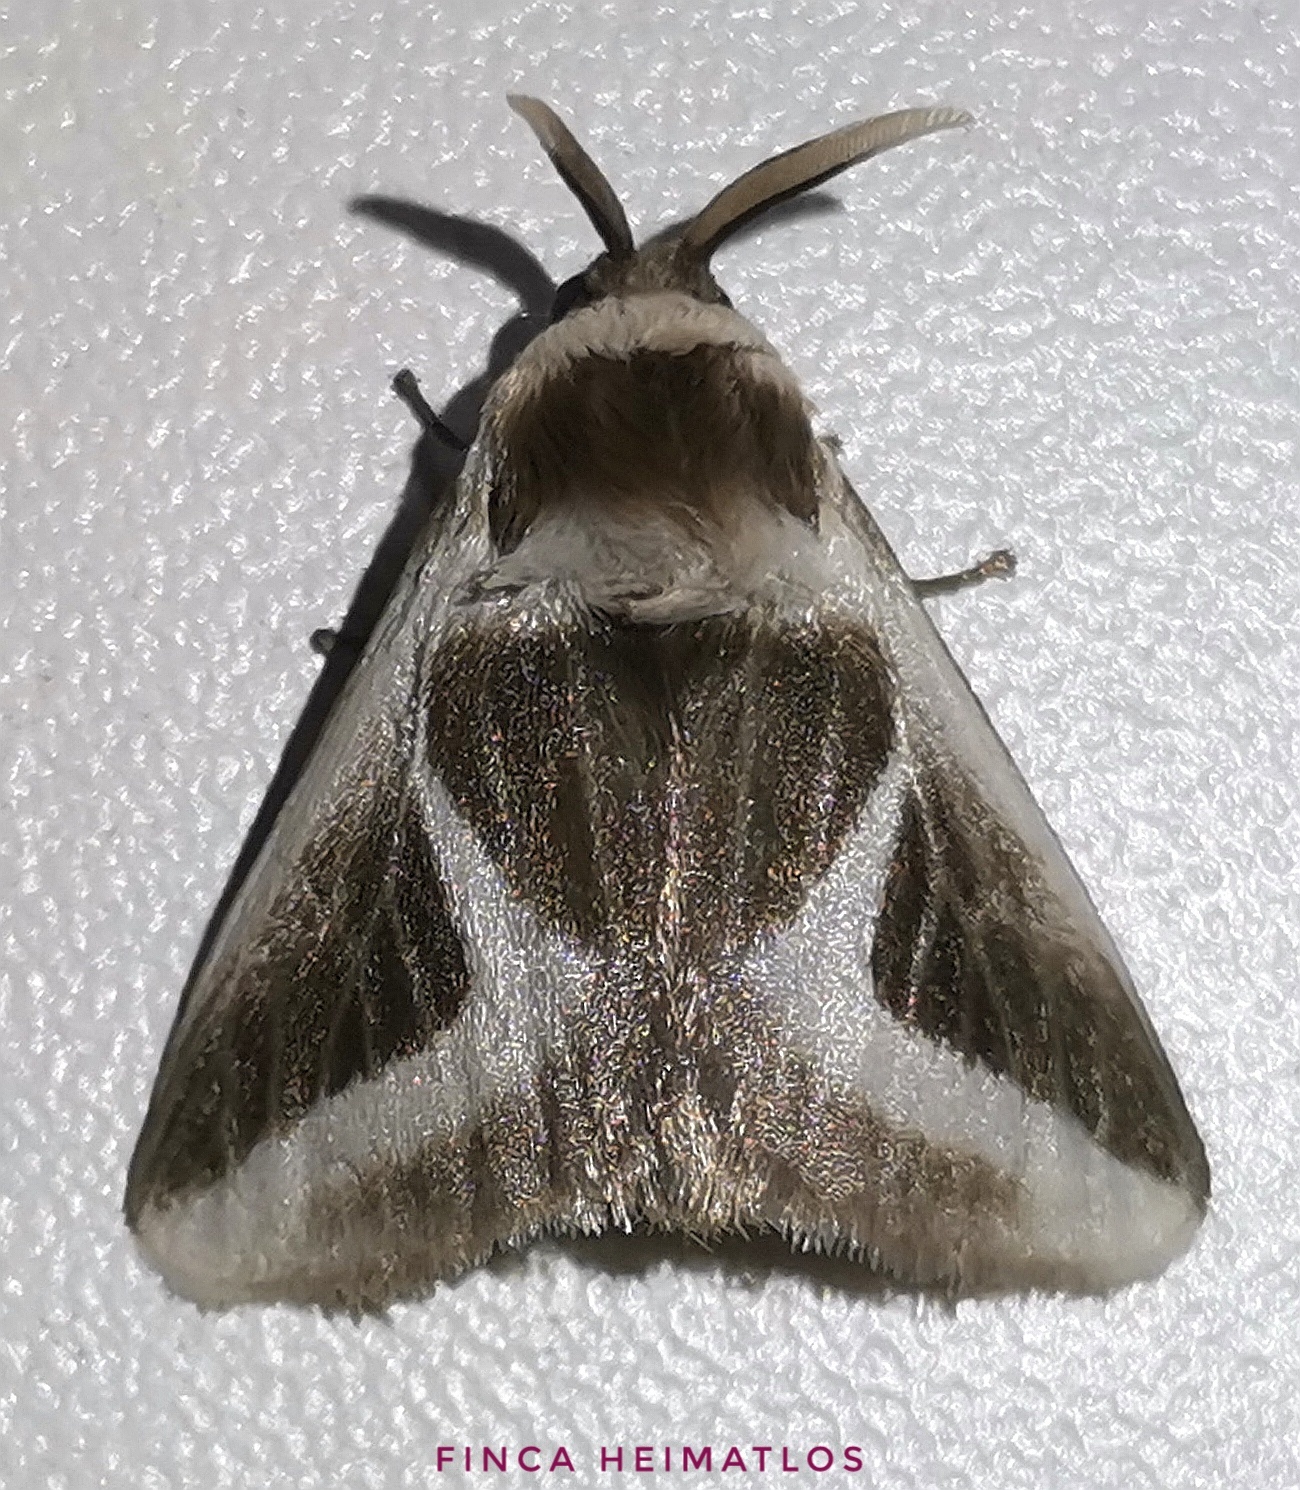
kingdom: Animalia
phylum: Arthropoda
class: Insecta
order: Lepidoptera
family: Megalopygidae
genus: Mesoscia
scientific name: Mesoscia anguilinea
